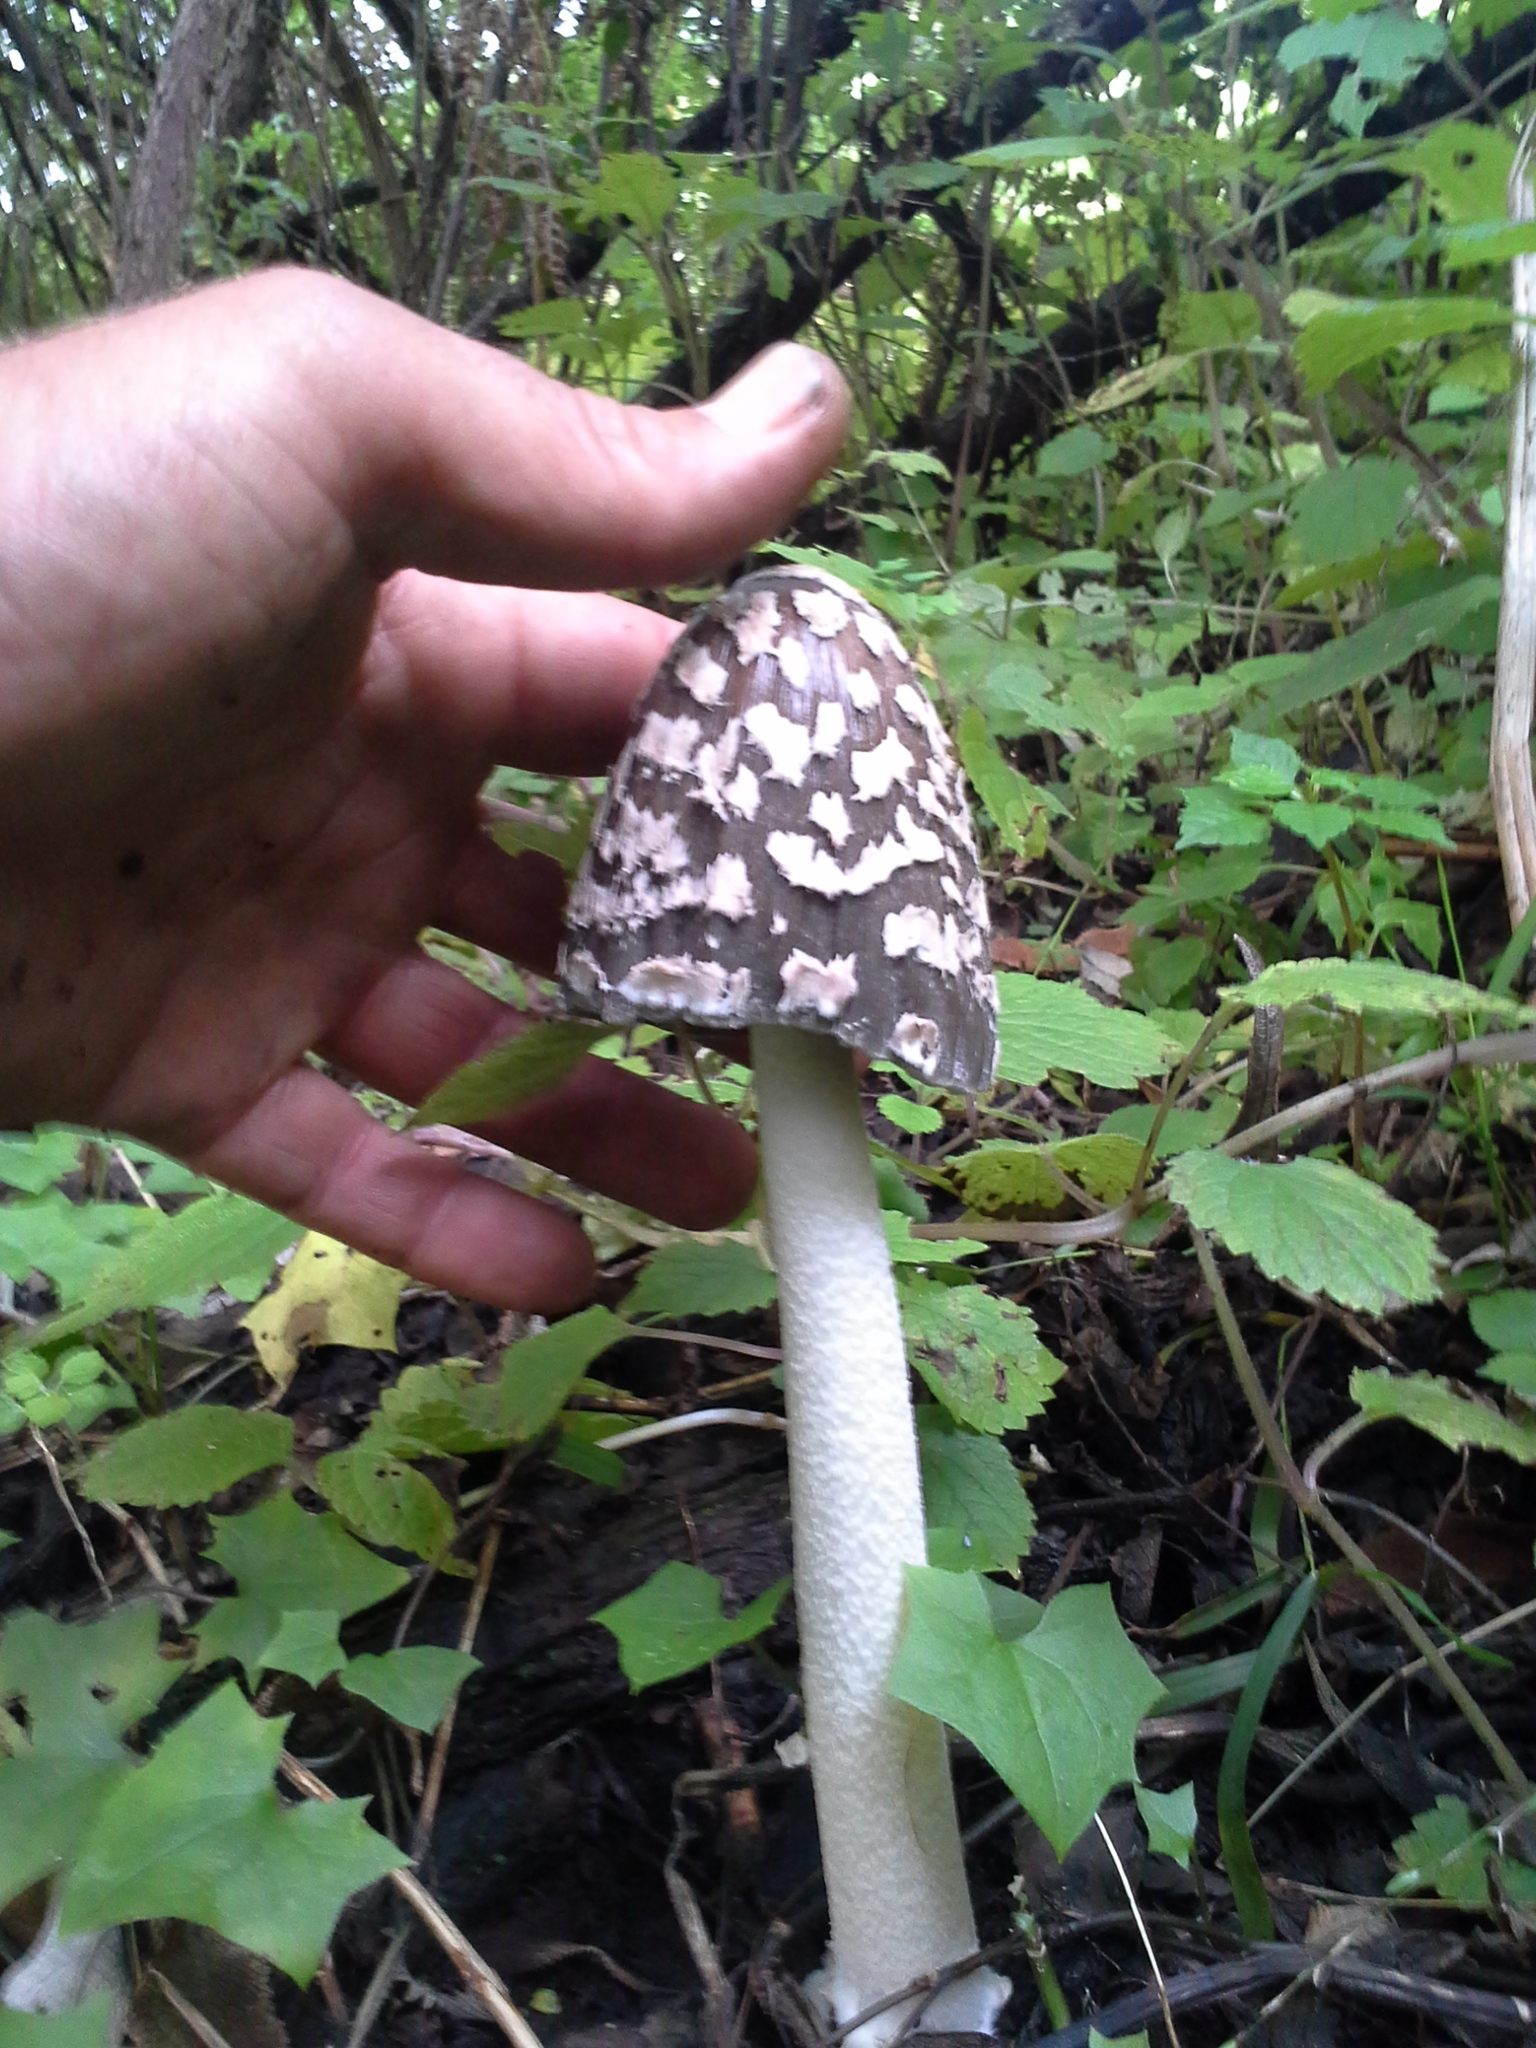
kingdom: Fungi
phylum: Basidiomycota
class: Agaricomycetes
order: Agaricales
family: Psathyrellaceae
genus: Coprinopsis
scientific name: Coprinopsis picacea
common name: Magpie inkcap
